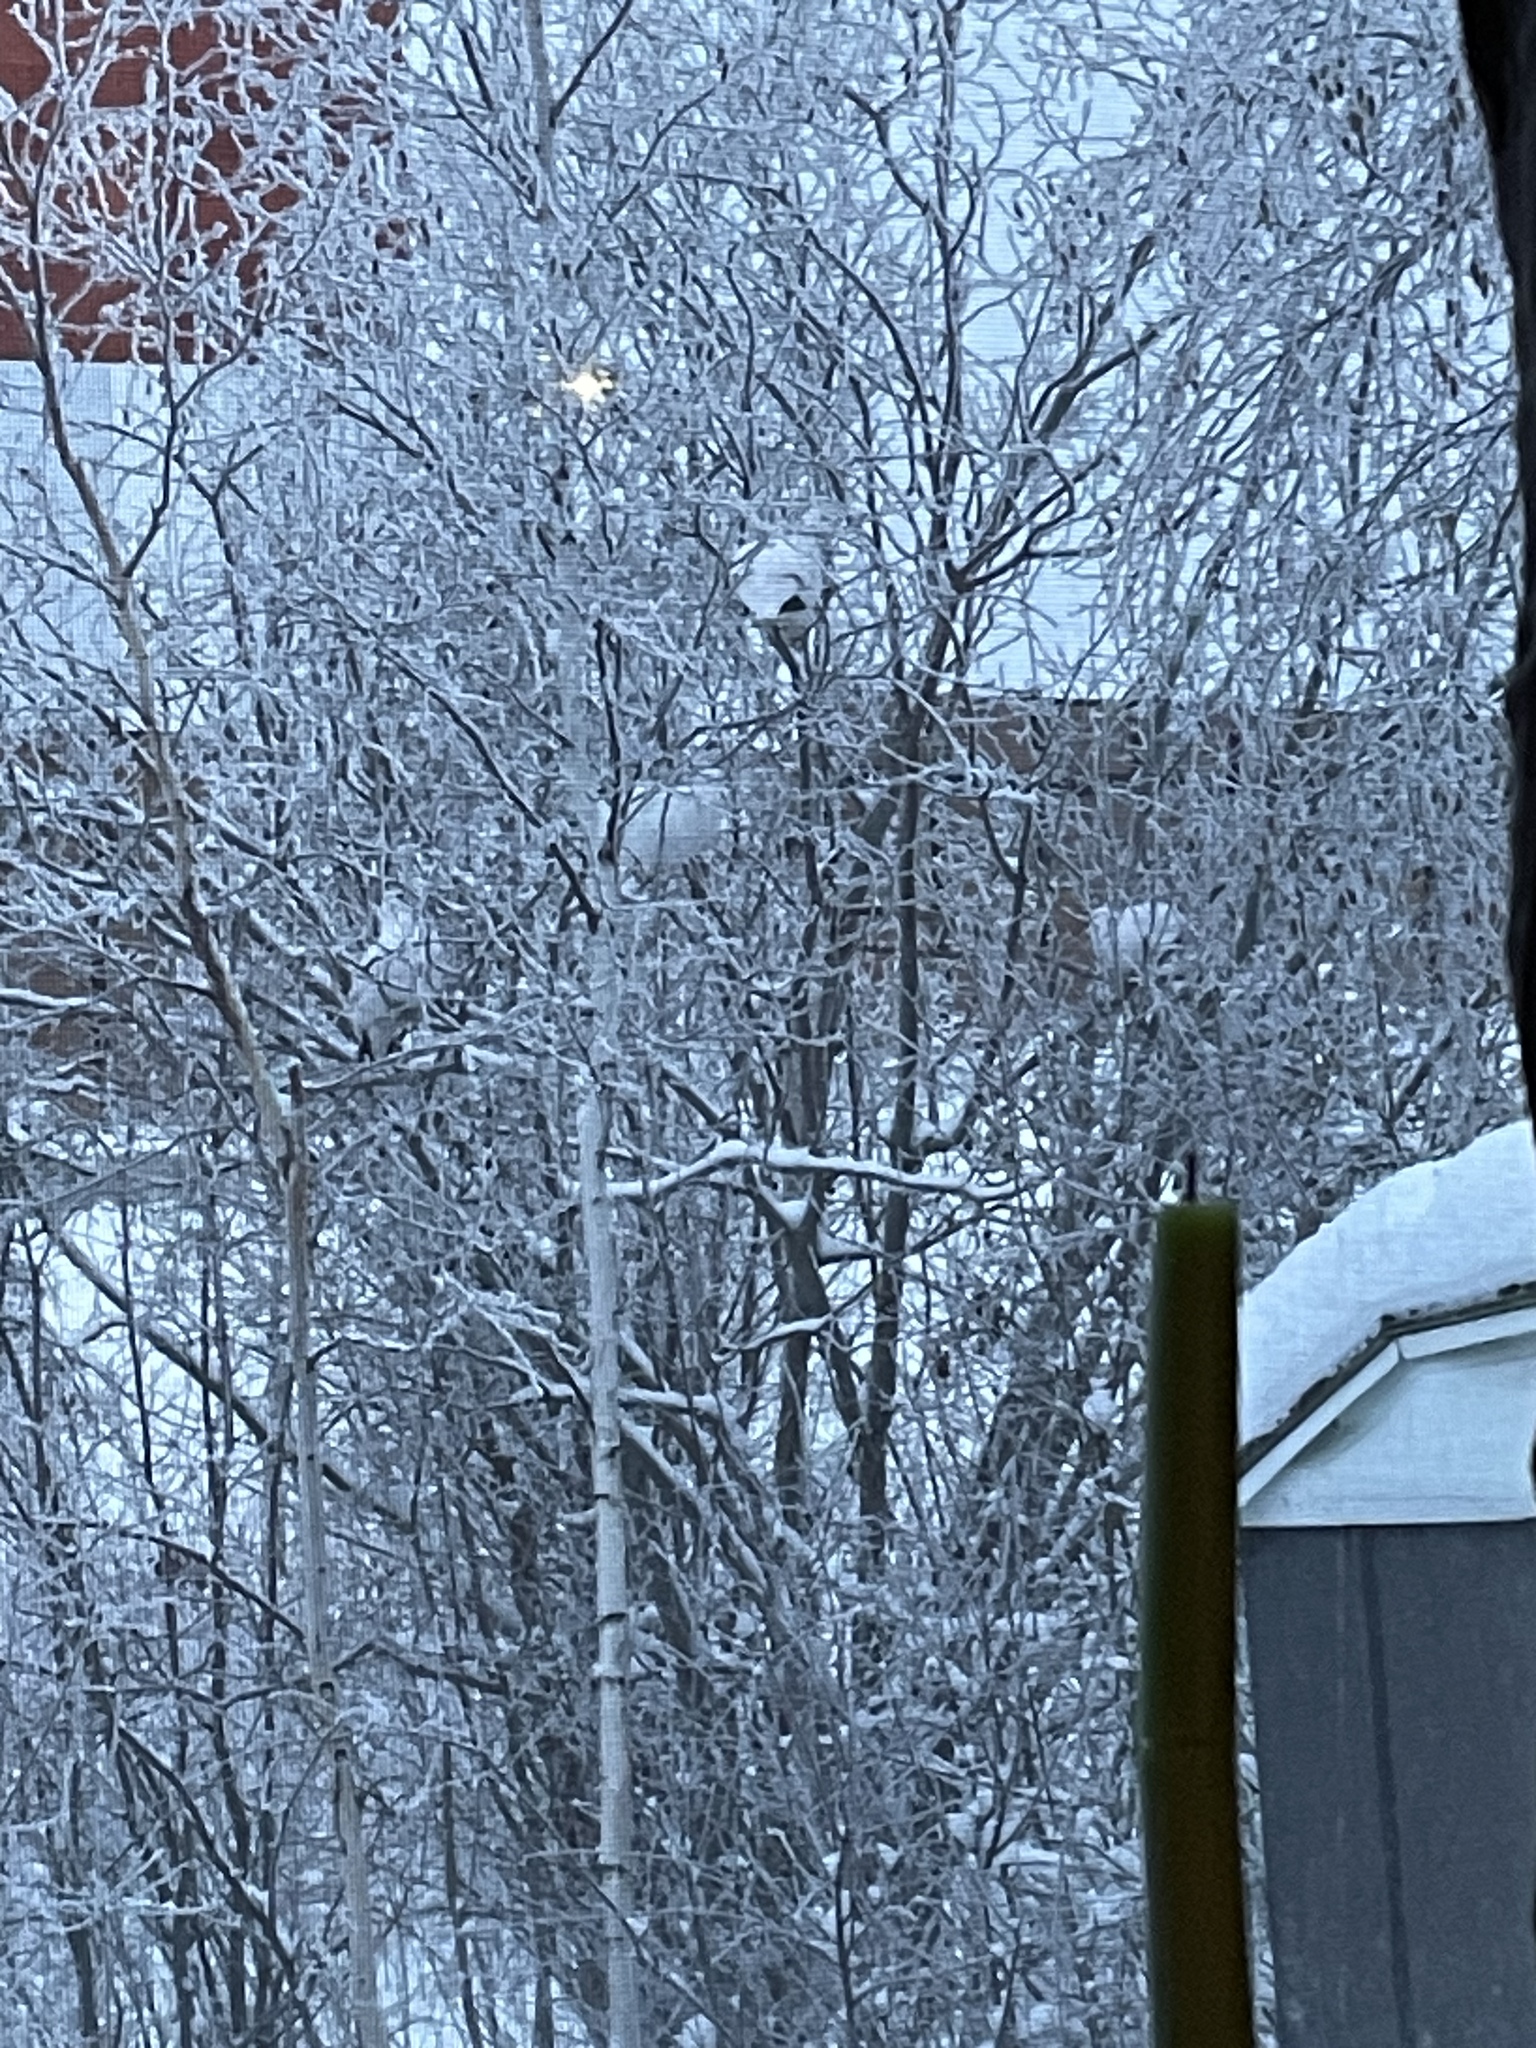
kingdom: Animalia
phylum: Chordata
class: Aves
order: Galliformes
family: Phasianidae
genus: Lagopus
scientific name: Lagopus lagopus
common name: Willow ptarmigan
